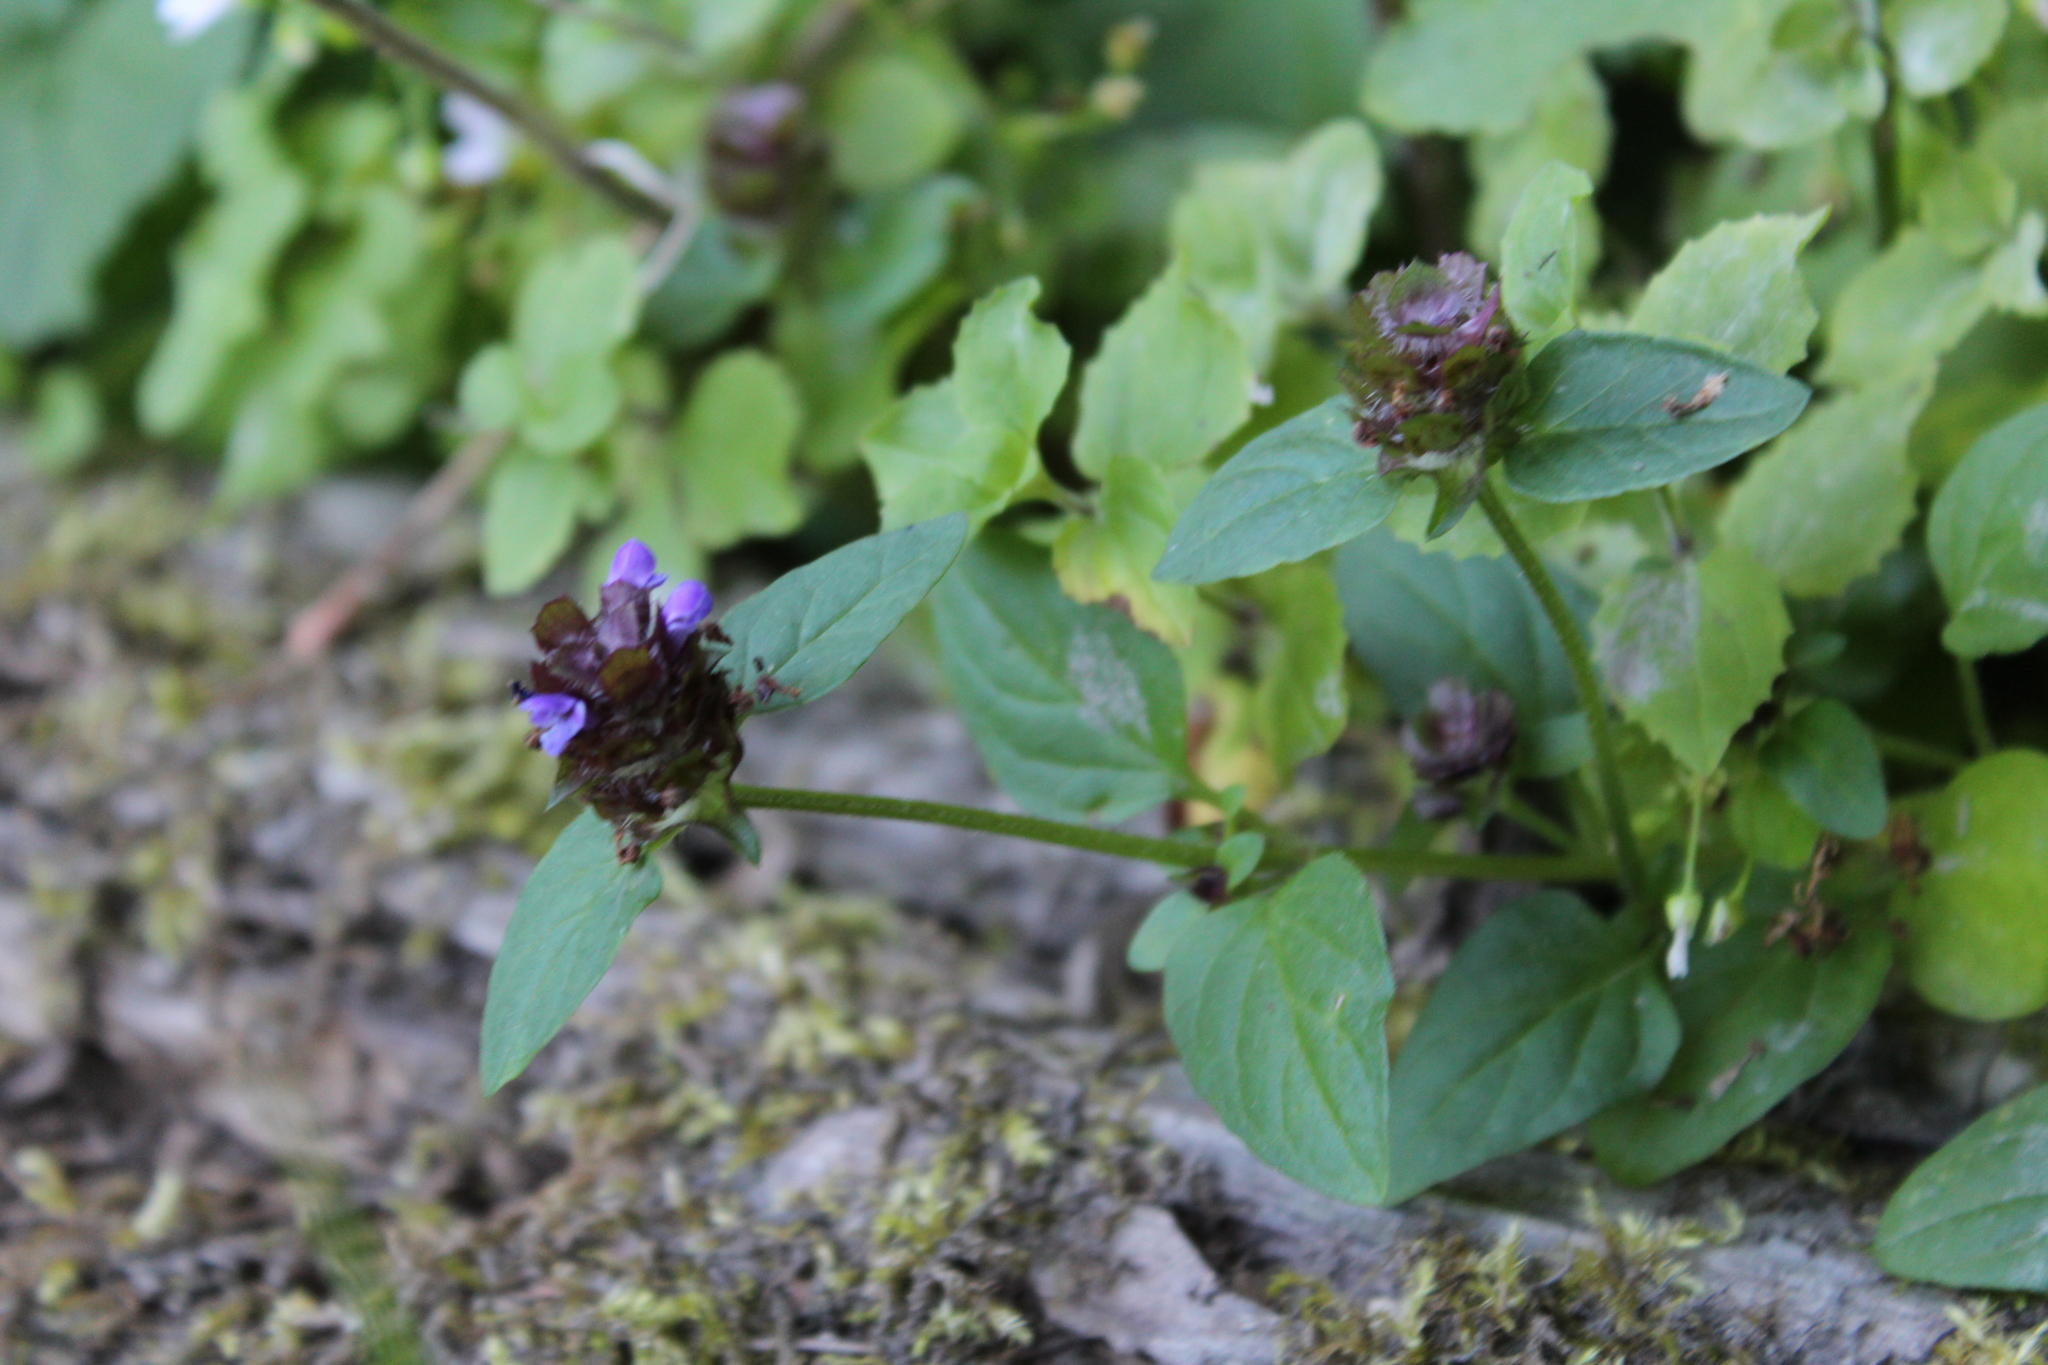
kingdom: Plantae
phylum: Tracheophyta
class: Magnoliopsida
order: Lamiales
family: Lamiaceae
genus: Prunella
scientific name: Prunella vulgaris
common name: Heal-all
